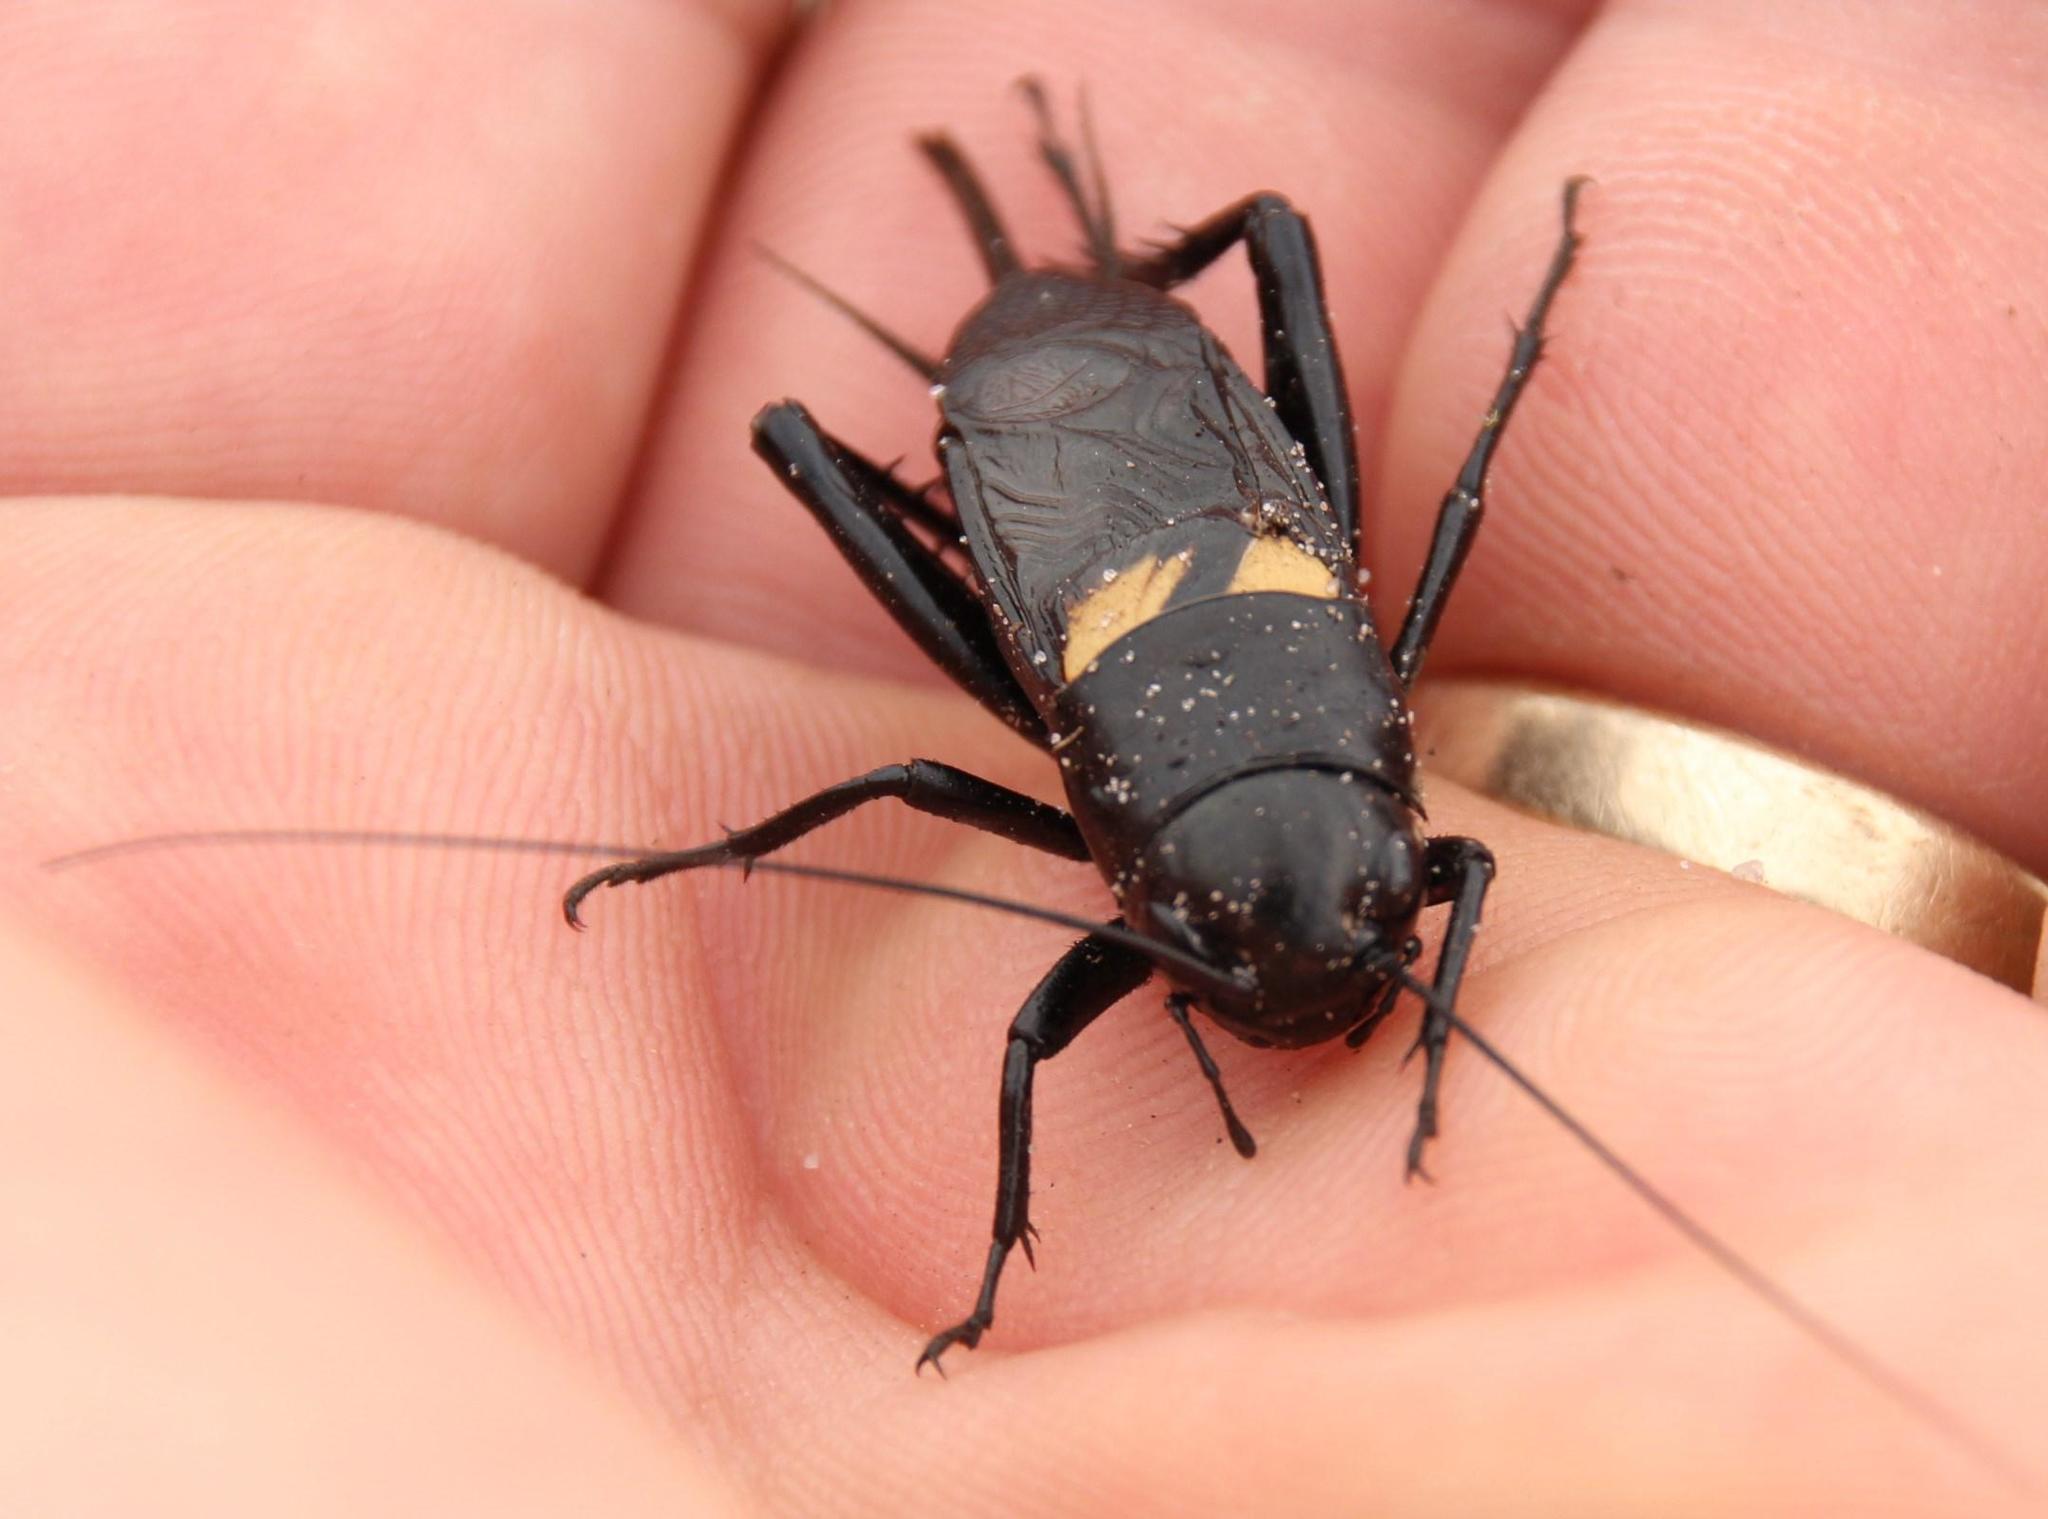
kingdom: Animalia
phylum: Arthropoda
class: Insecta
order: Orthoptera
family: Gryllidae
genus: Gryllus
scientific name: Gryllus bimaculatus
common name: Two-spotted cricket
